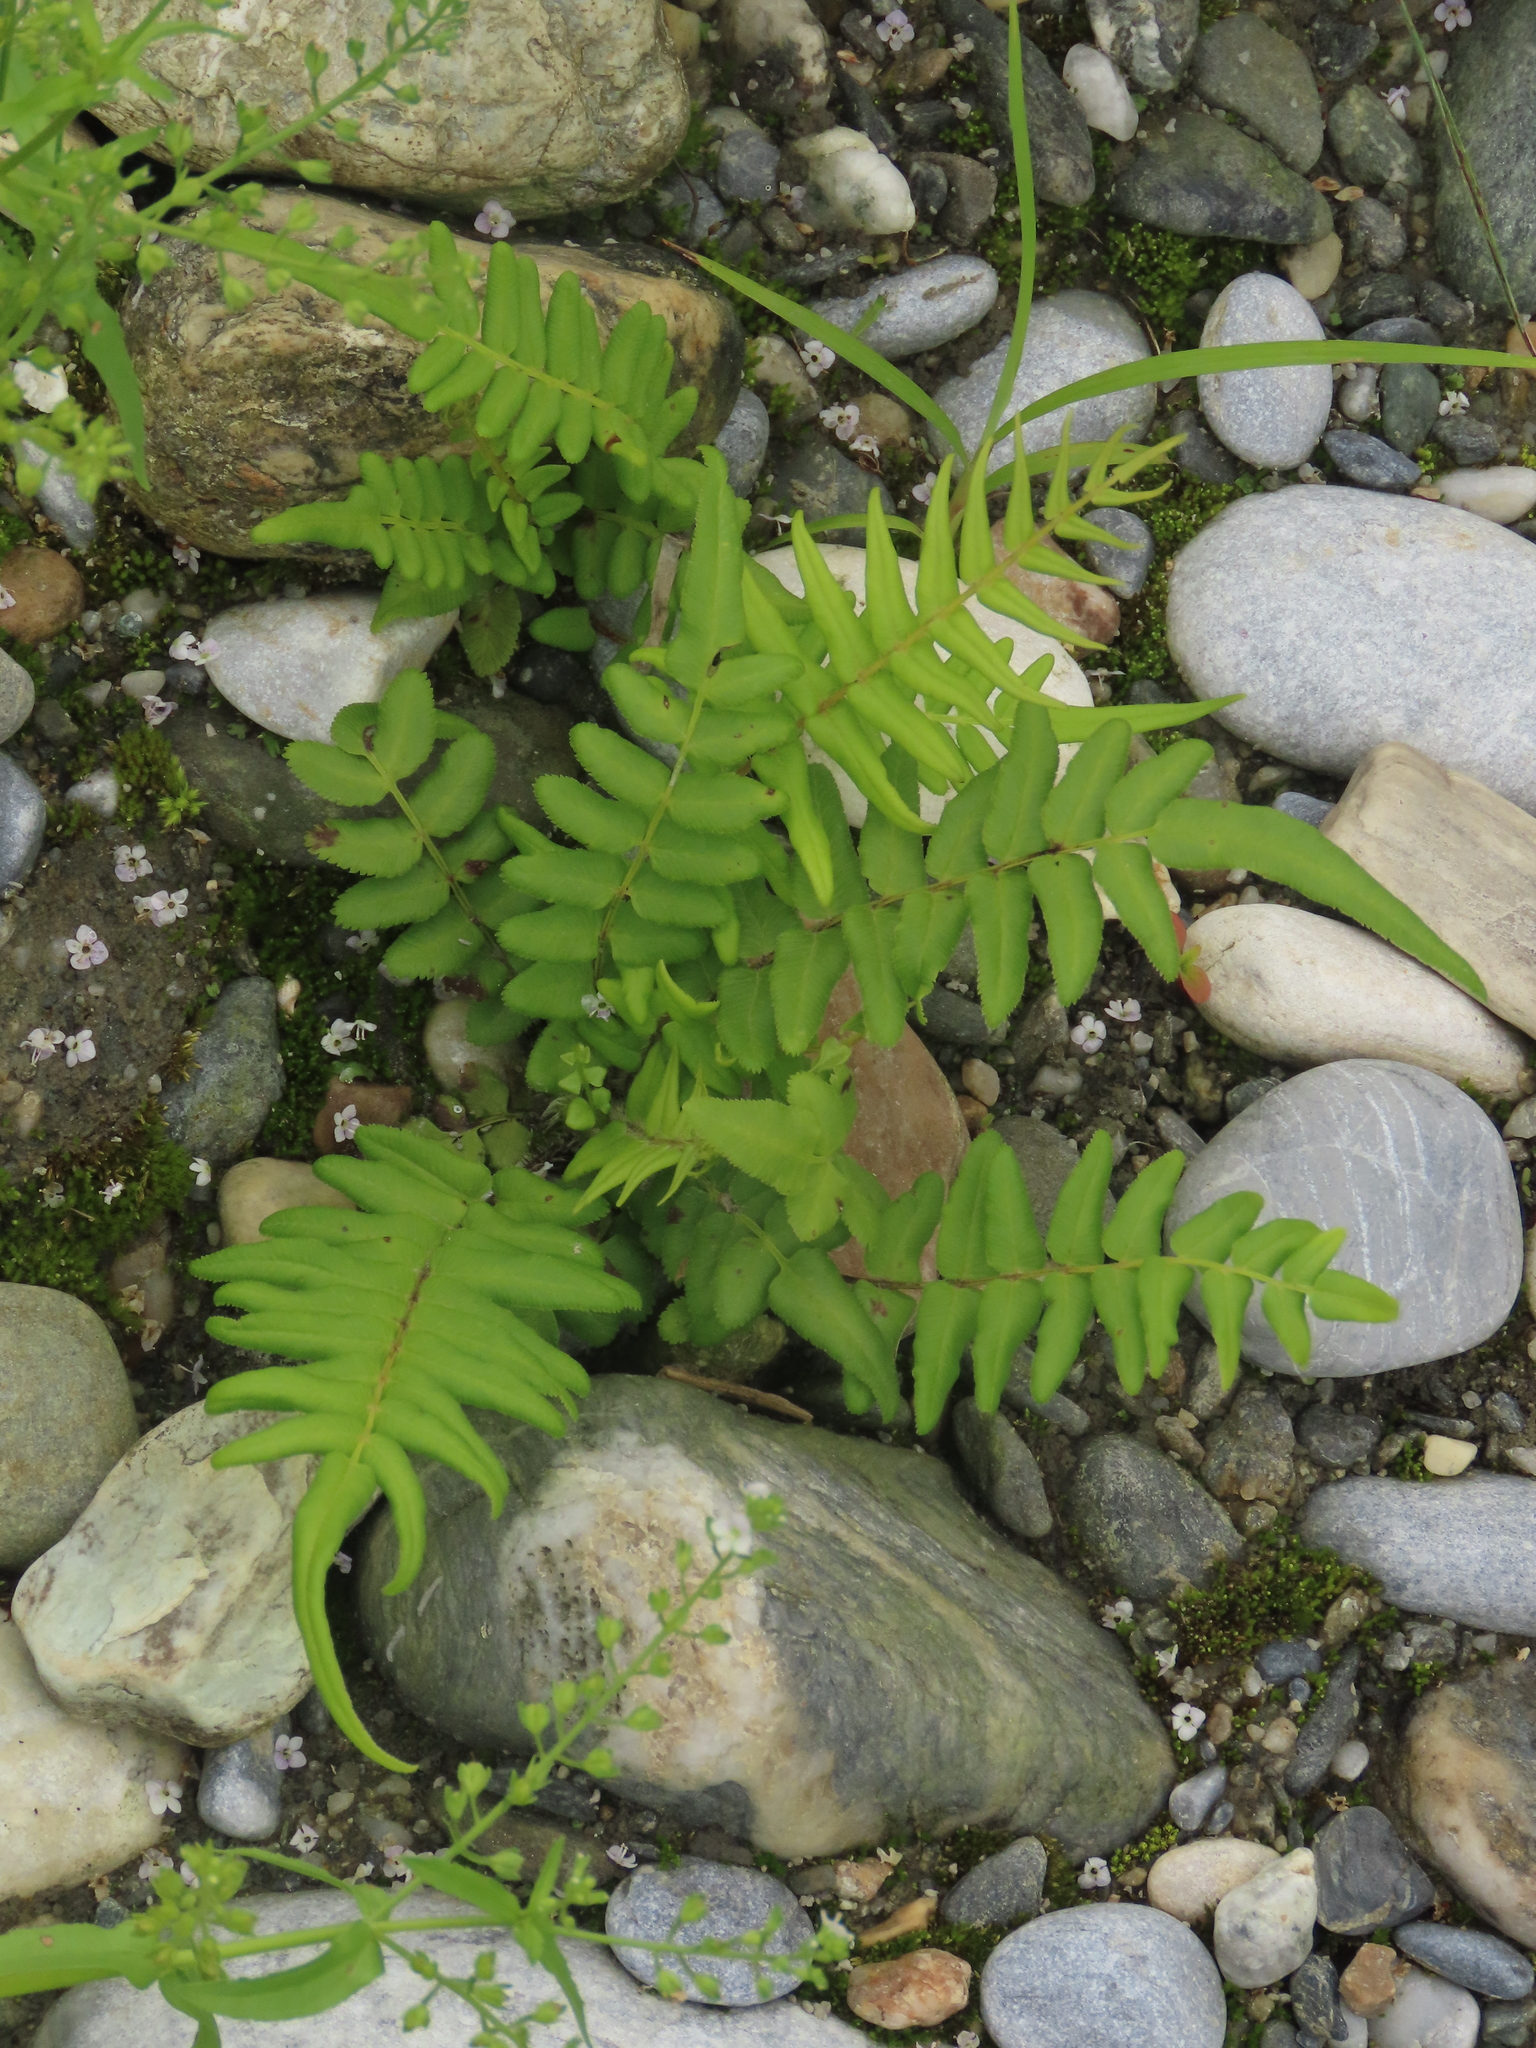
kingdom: Plantae
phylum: Tracheophyta
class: Polypodiopsida
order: Polypodiales
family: Pteridaceae
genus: Pteris
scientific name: Pteris vittata
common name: Ladder brake
